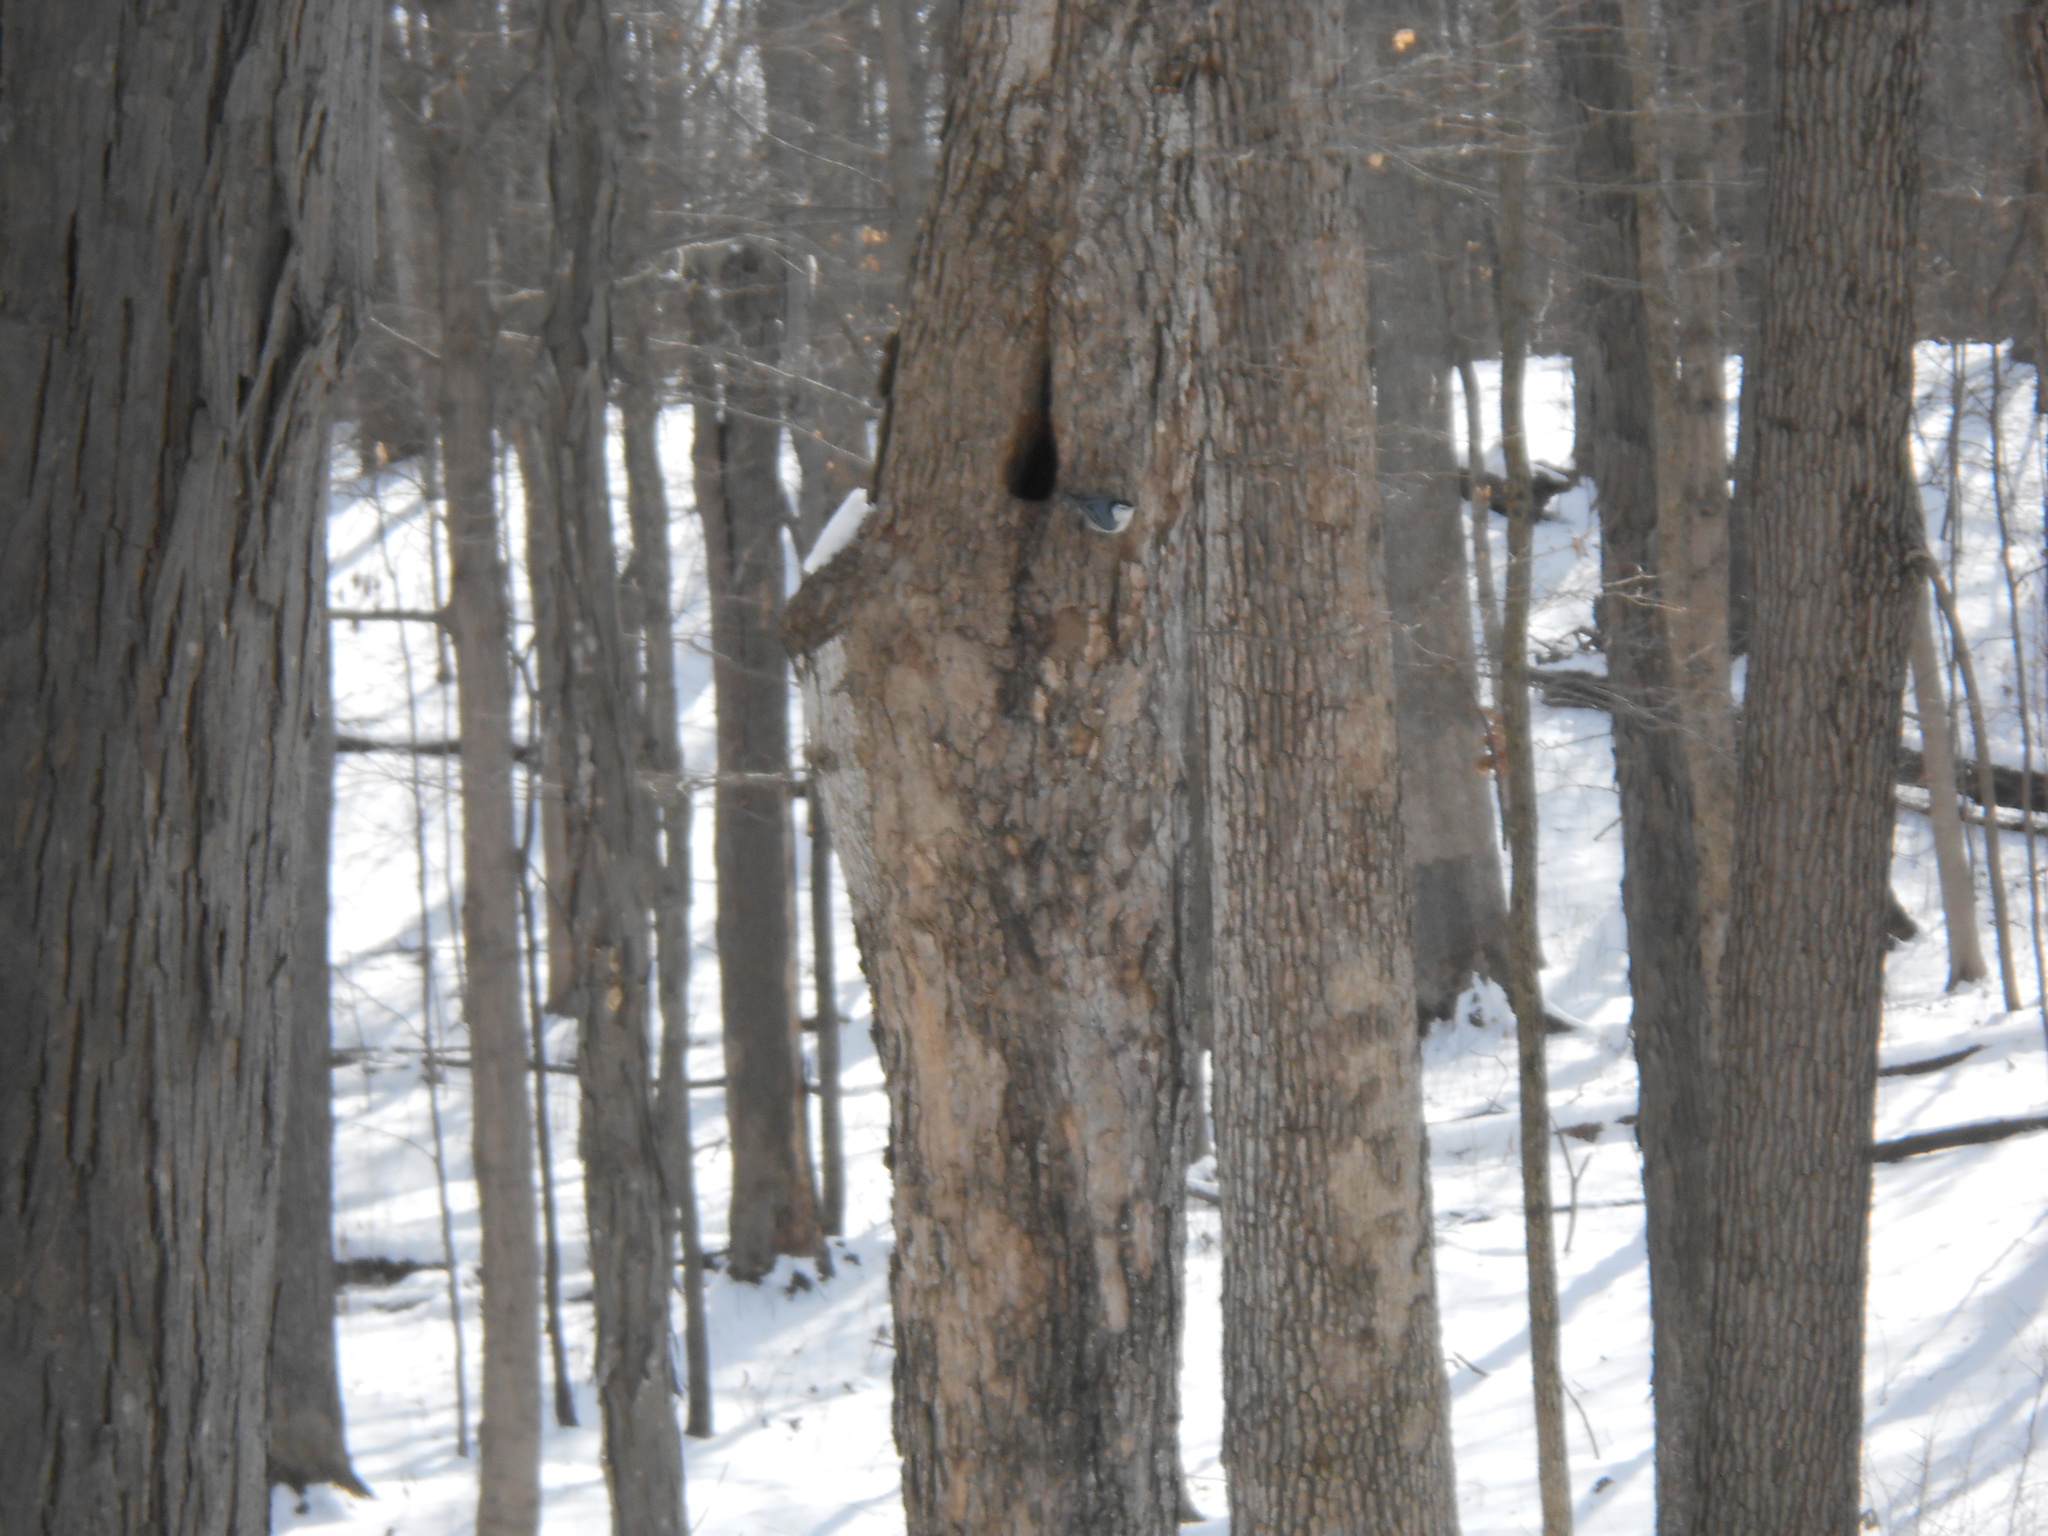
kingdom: Animalia
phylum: Chordata
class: Aves
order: Passeriformes
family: Sittidae
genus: Sitta
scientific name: Sitta carolinensis
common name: White-breasted nuthatch
